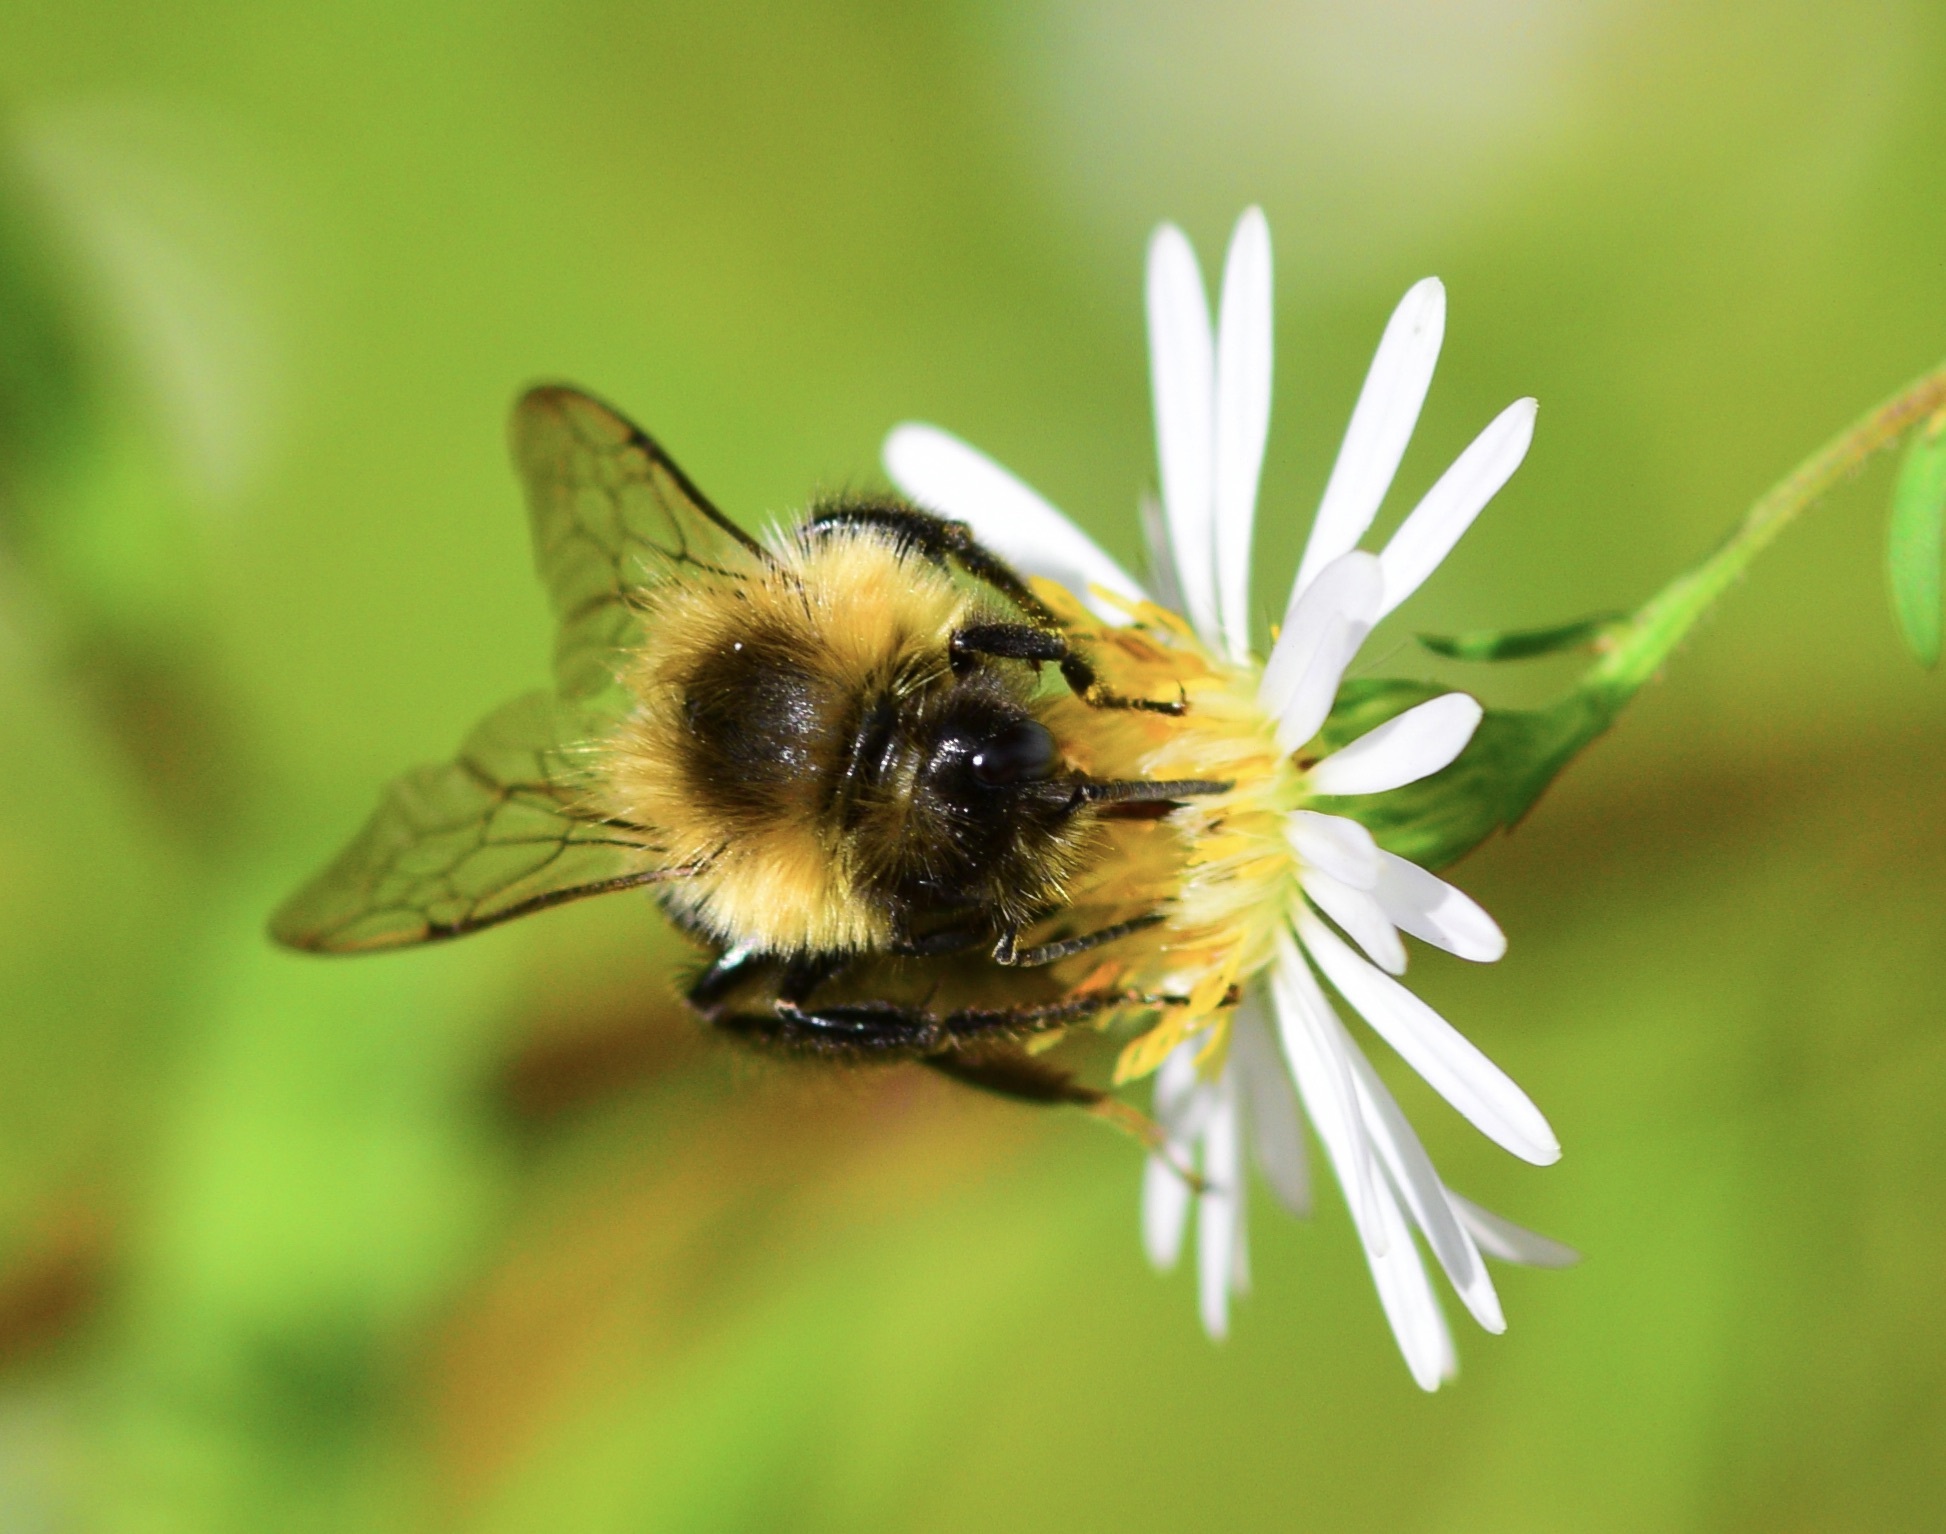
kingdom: Animalia
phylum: Arthropoda
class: Insecta
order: Hymenoptera
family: Apidae
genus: Bombus
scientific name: Bombus impatiens
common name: Common eastern bumble bee
